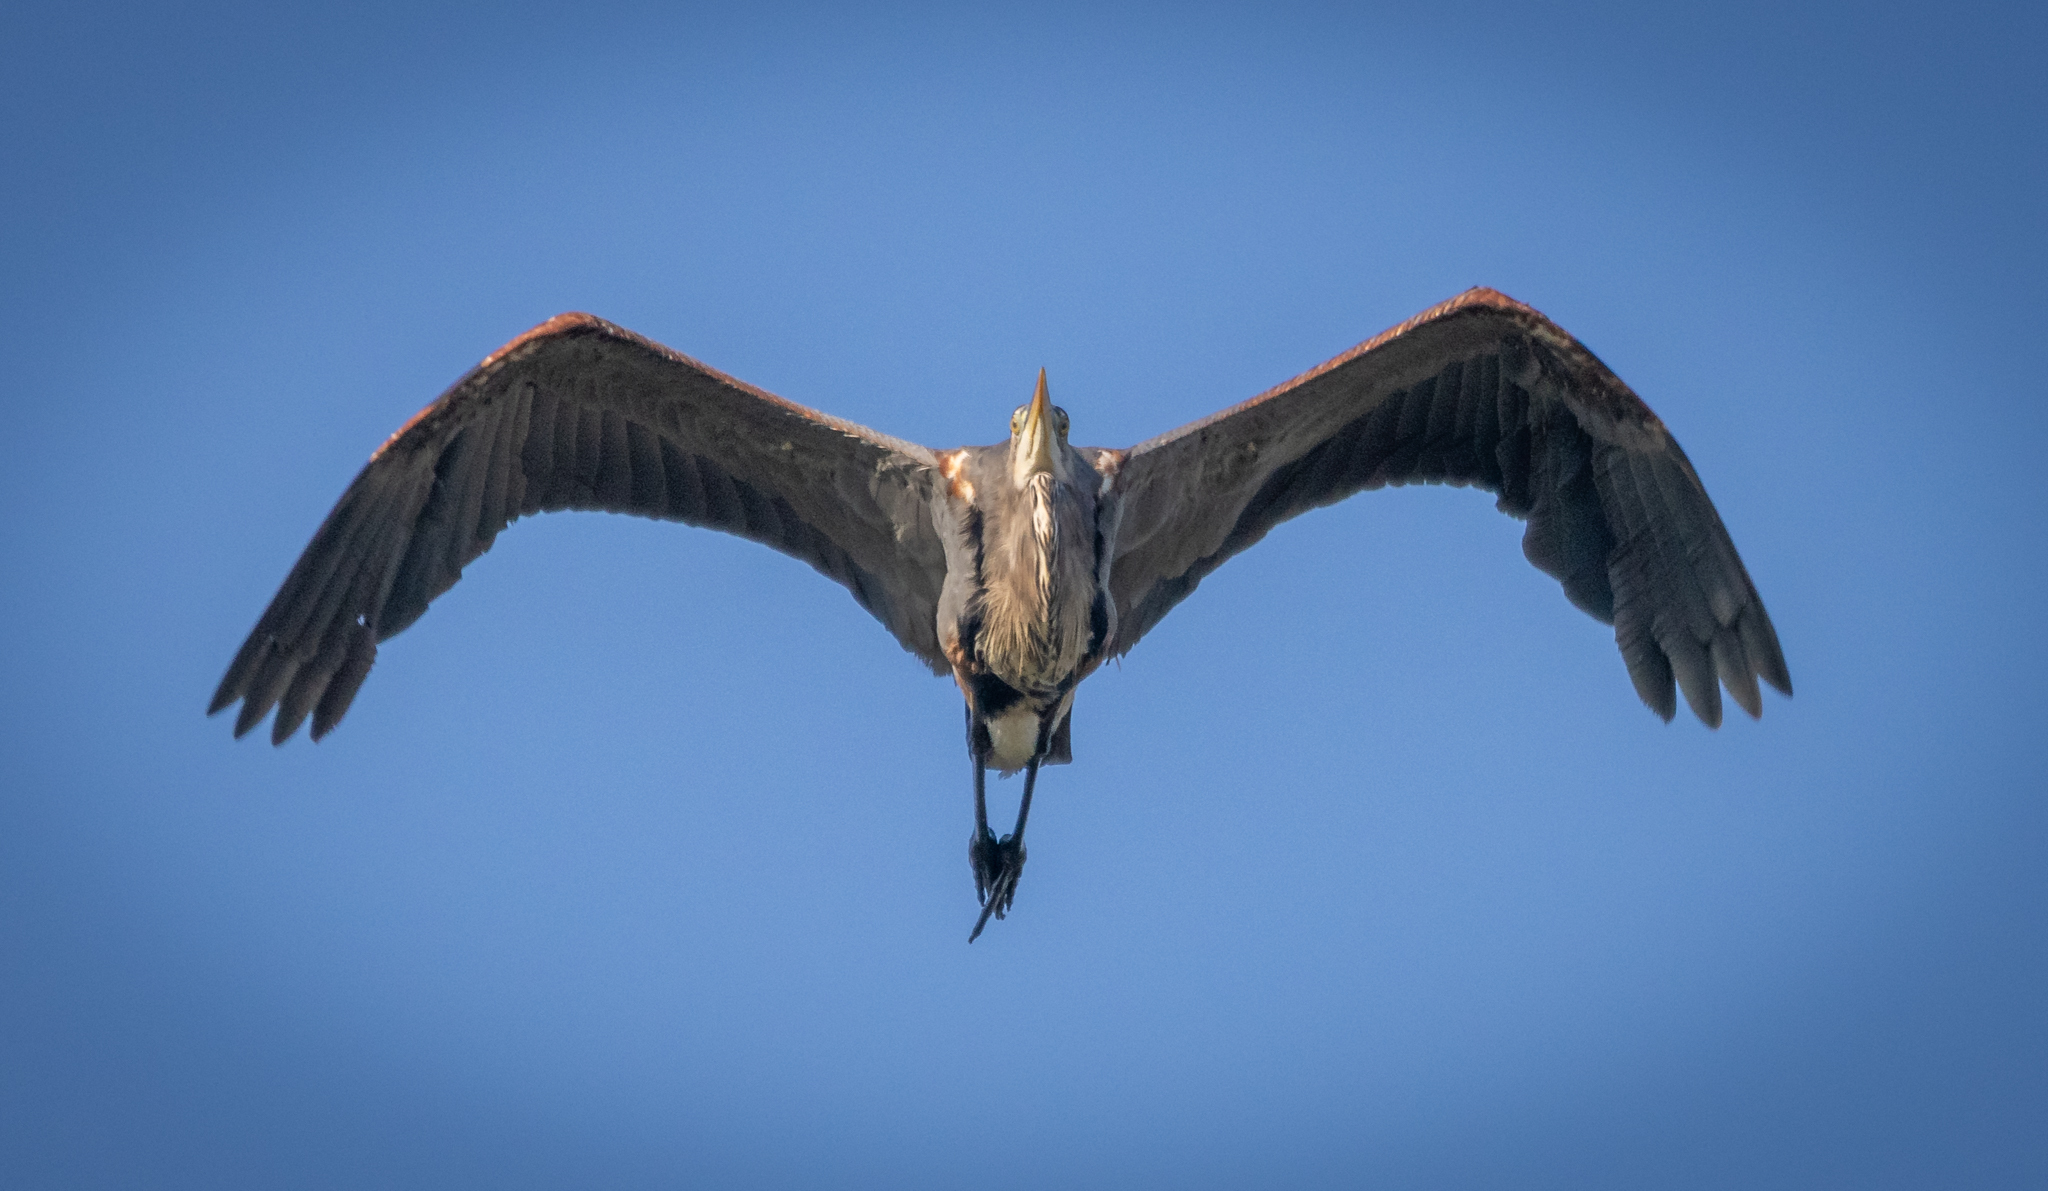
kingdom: Animalia
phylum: Chordata
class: Aves
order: Pelecaniformes
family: Ardeidae
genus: Ardea
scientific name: Ardea herodias
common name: Great blue heron
